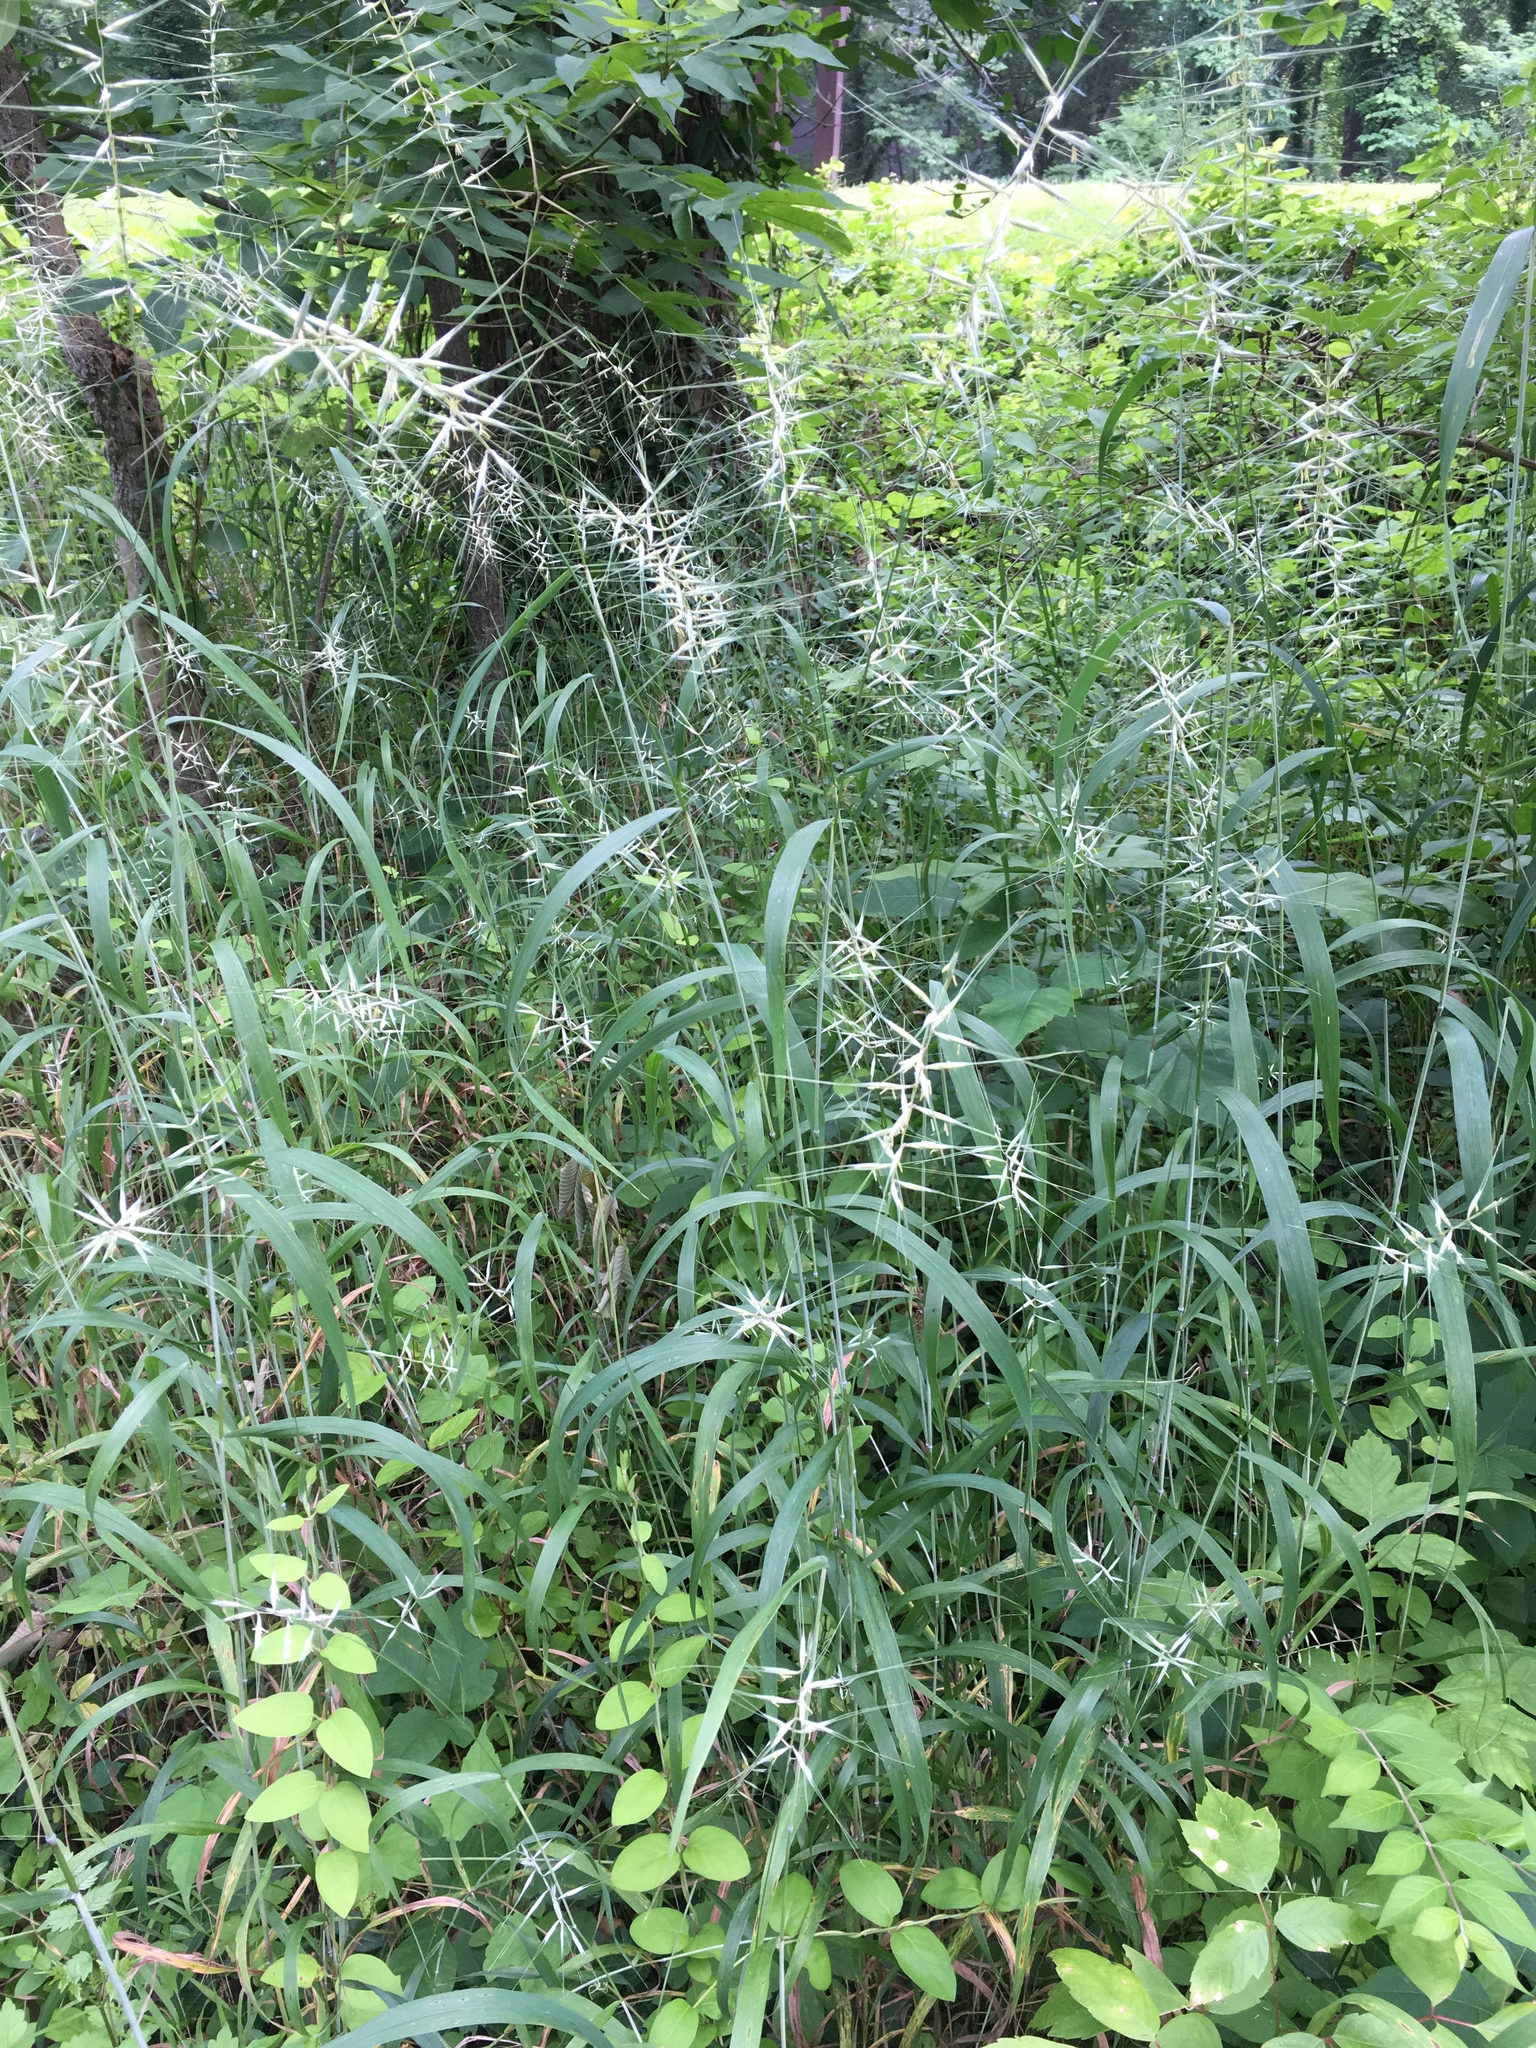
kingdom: Plantae
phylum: Tracheophyta
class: Liliopsida
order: Poales
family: Poaceae
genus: Elymus
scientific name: Elymus hystrix
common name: Bottlebrush grass
